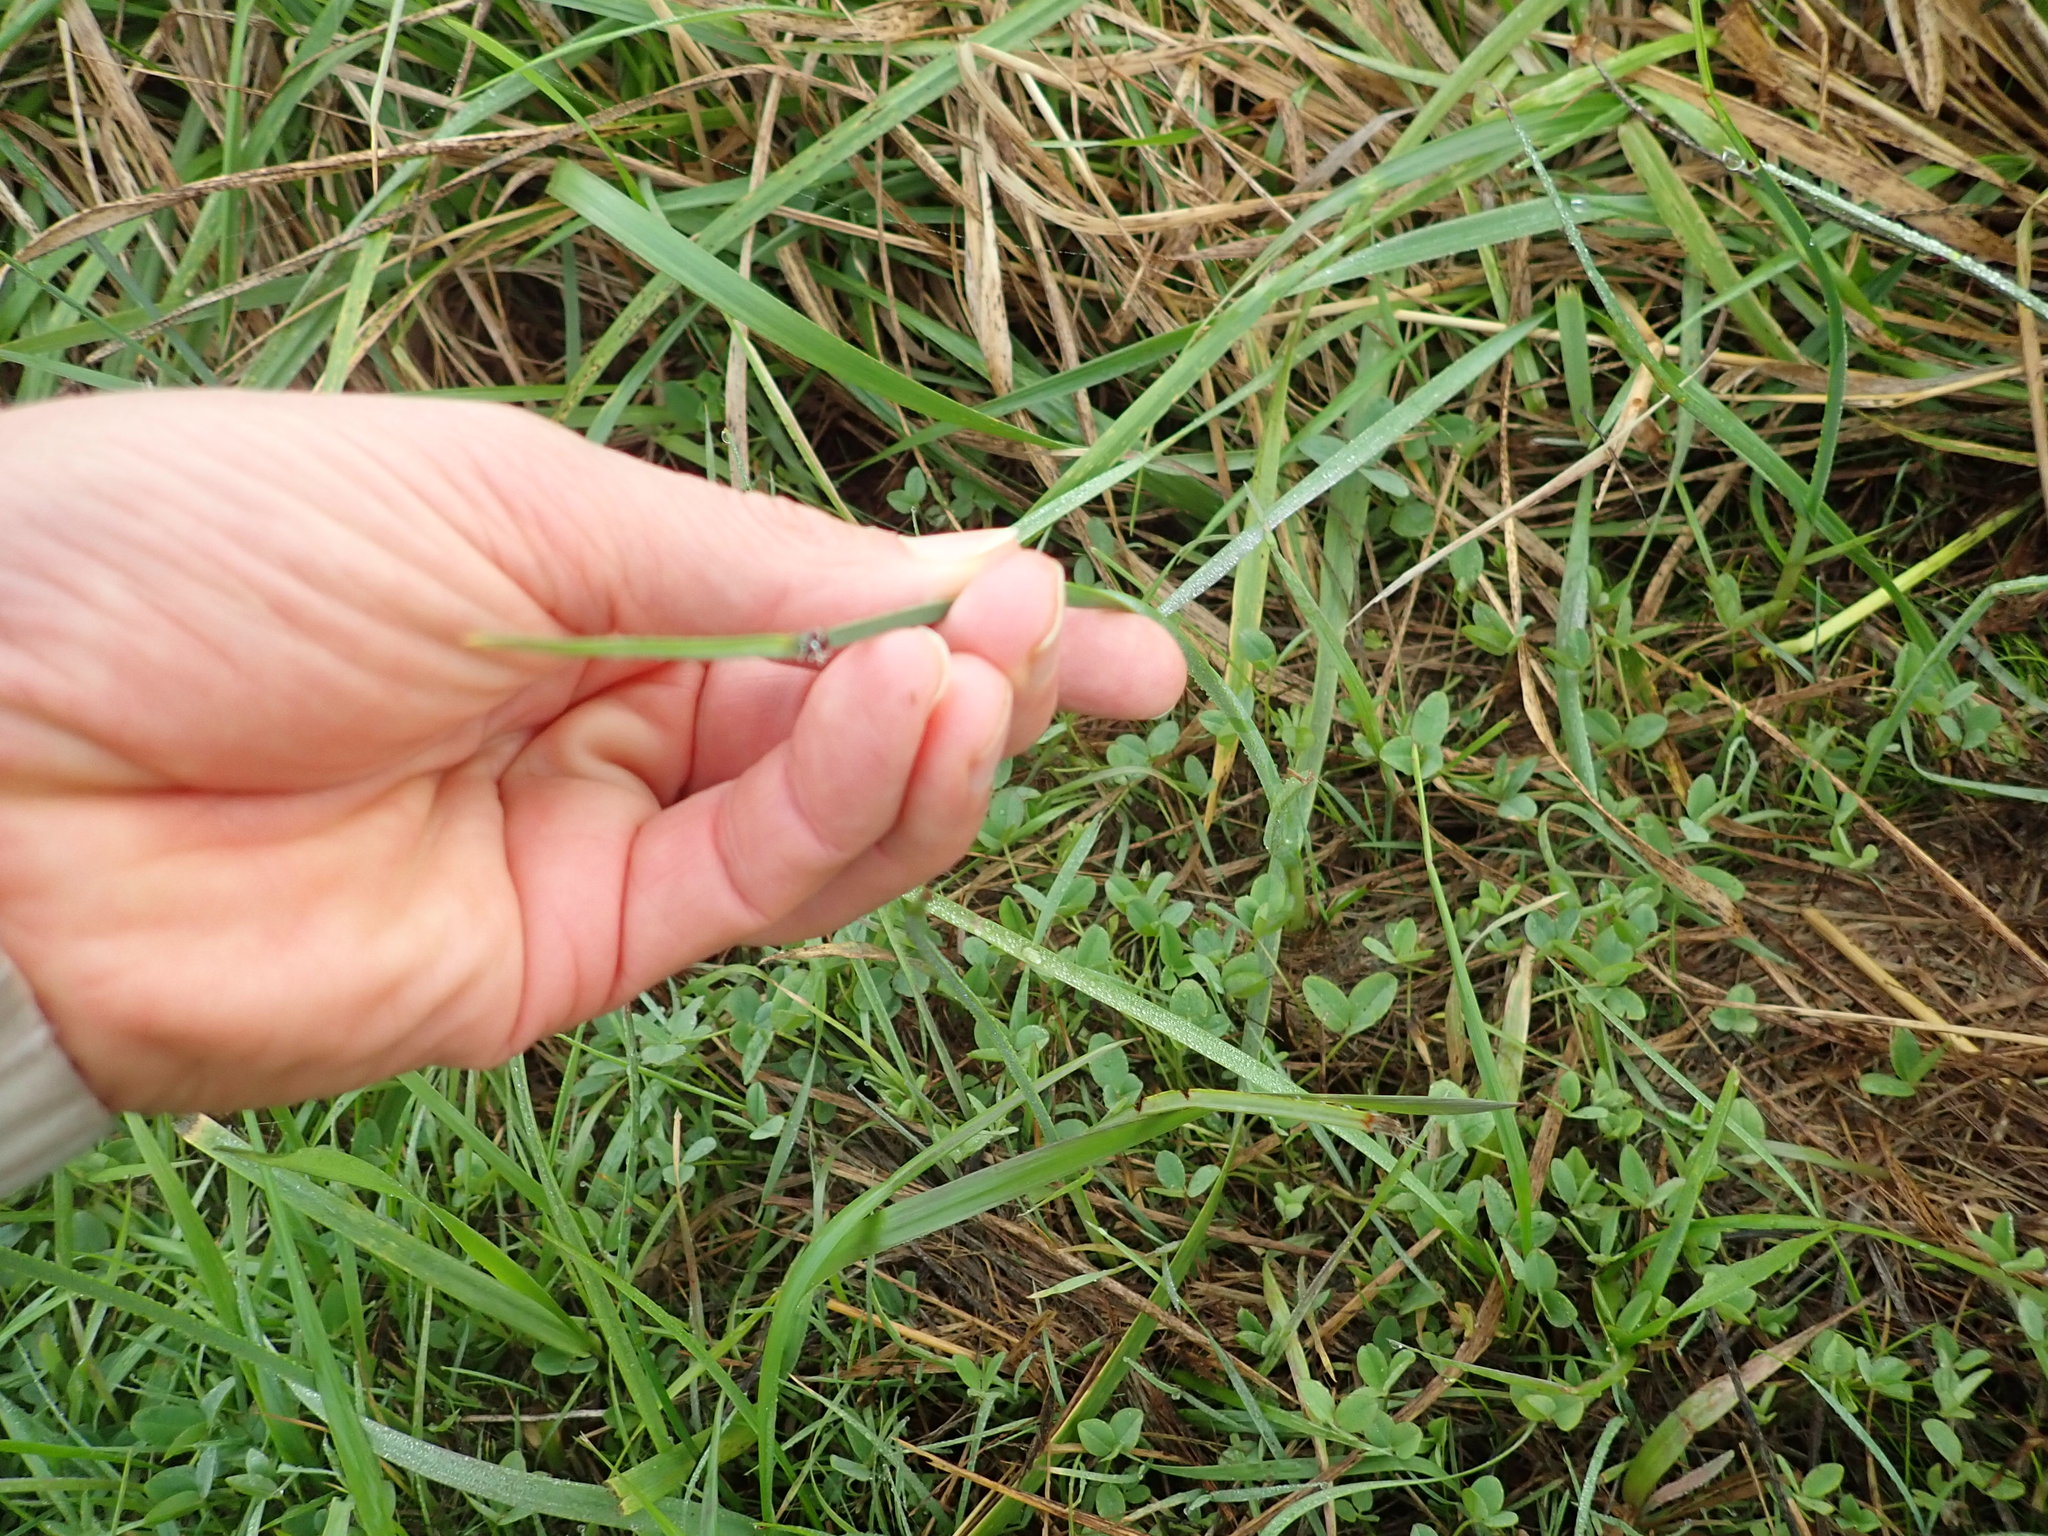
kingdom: Plantae
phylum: Tracheophyta
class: Liliopsida
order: Poales
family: Cyperaceae
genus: Schoenoplectus
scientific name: Schoenoplectus pungens
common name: Sharp club-rush
